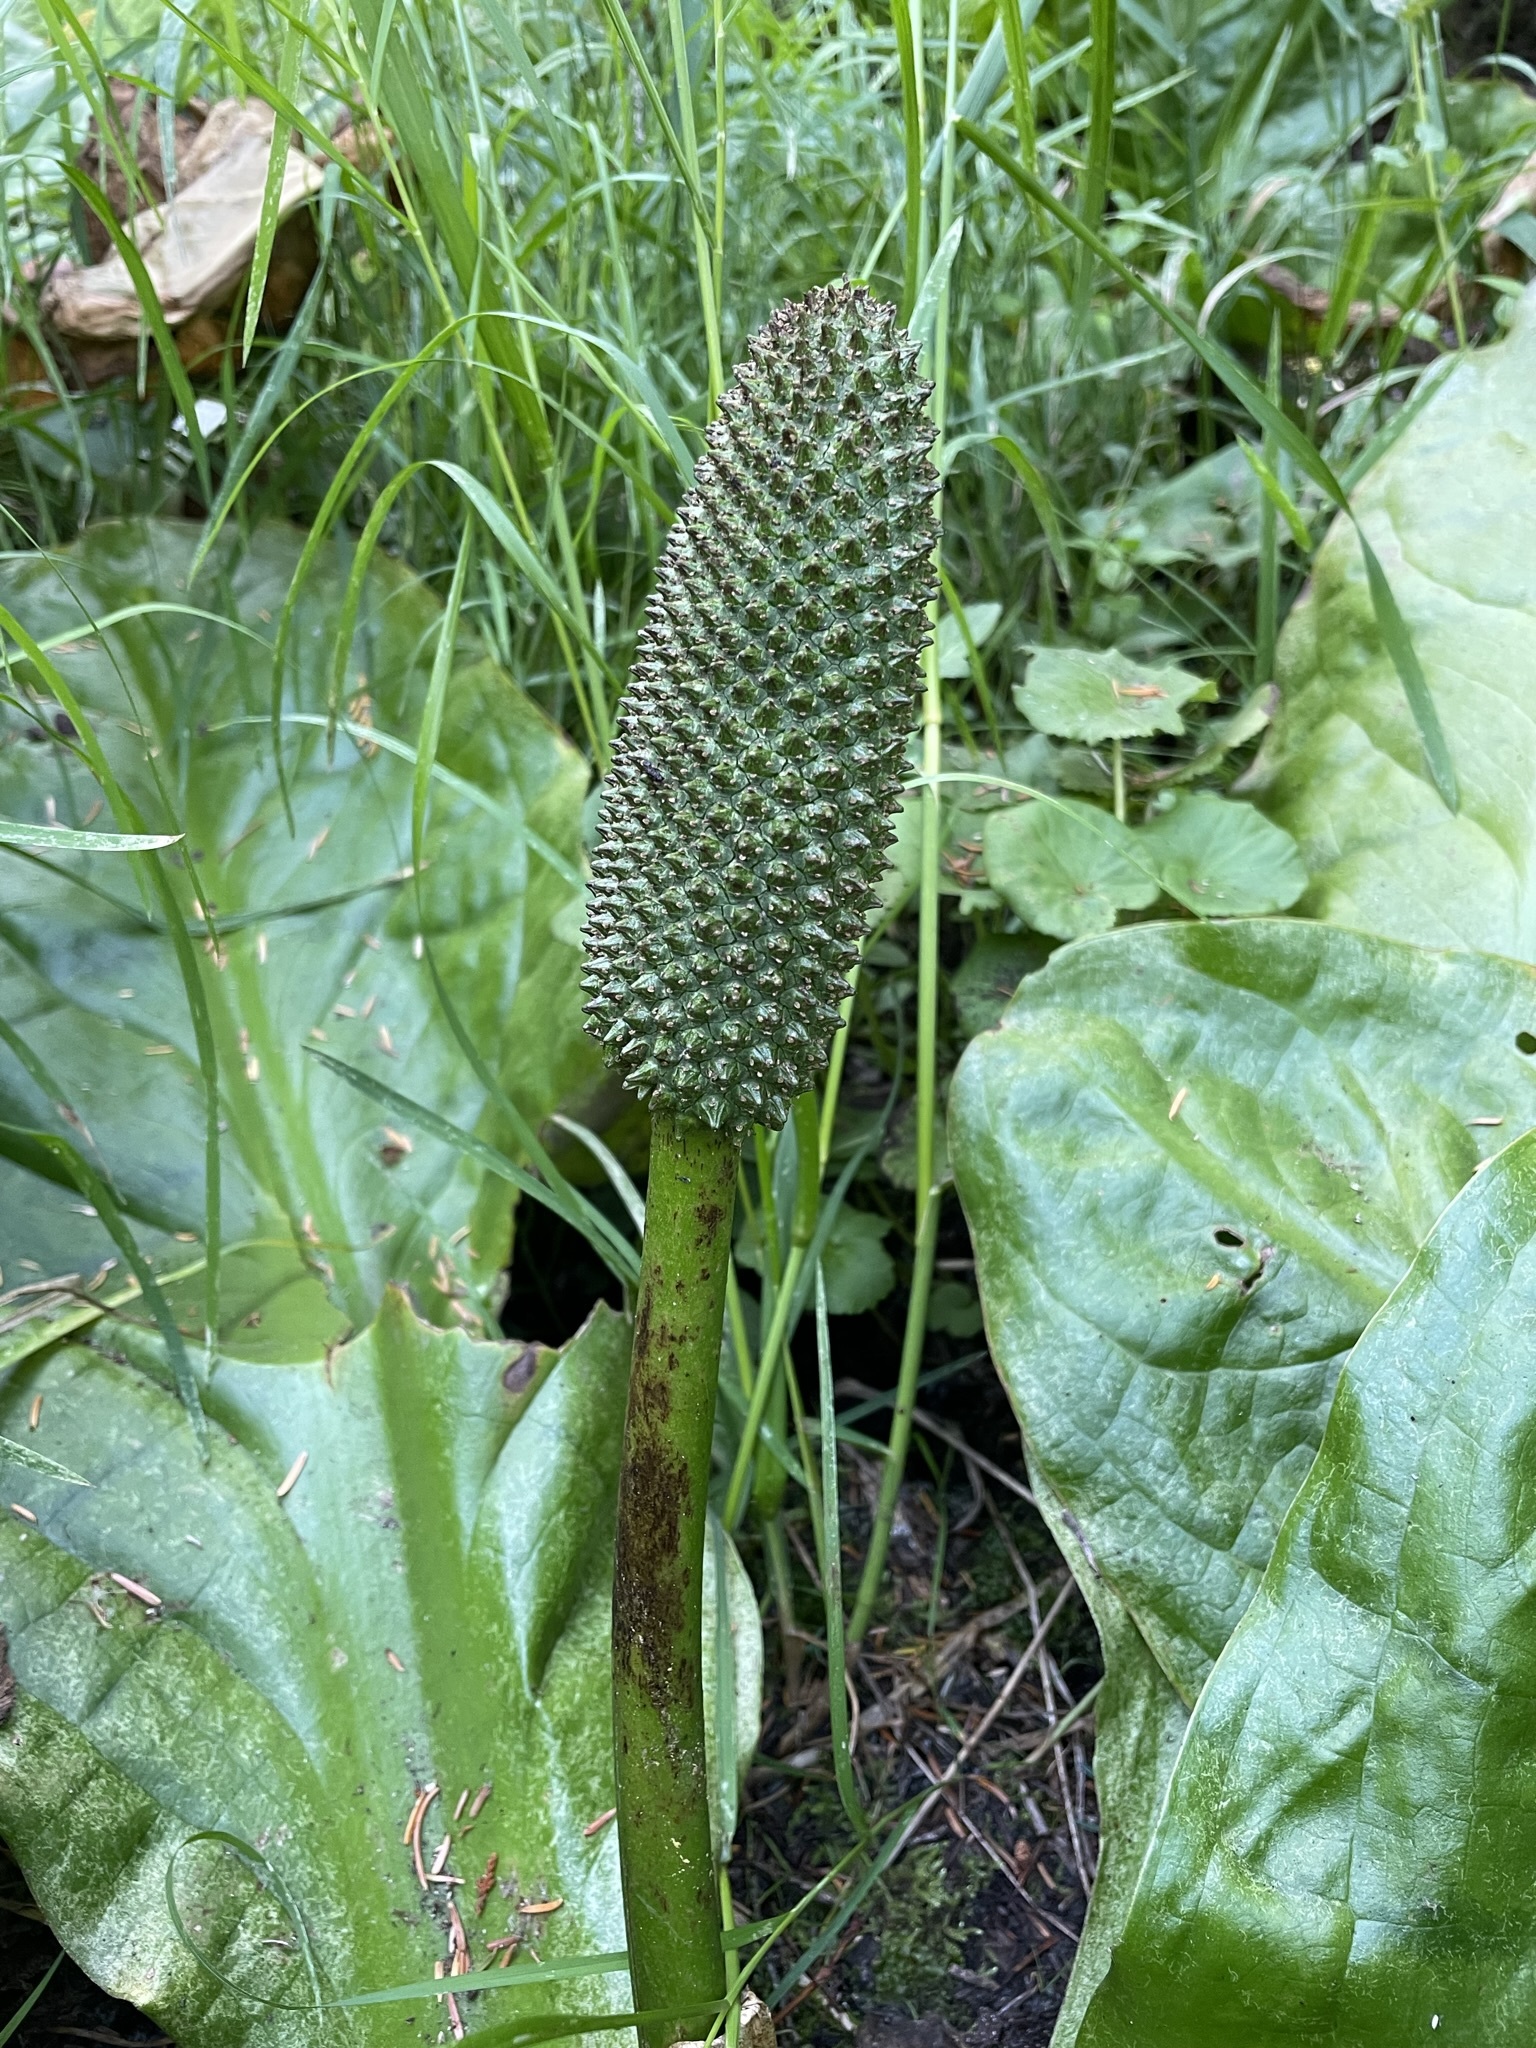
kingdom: Plantae
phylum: Tracheophyta
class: Liliopsida
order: Alismatales
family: Araceae
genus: Lysichiton
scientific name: Lysichiton americanus
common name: American skunk cabbage
